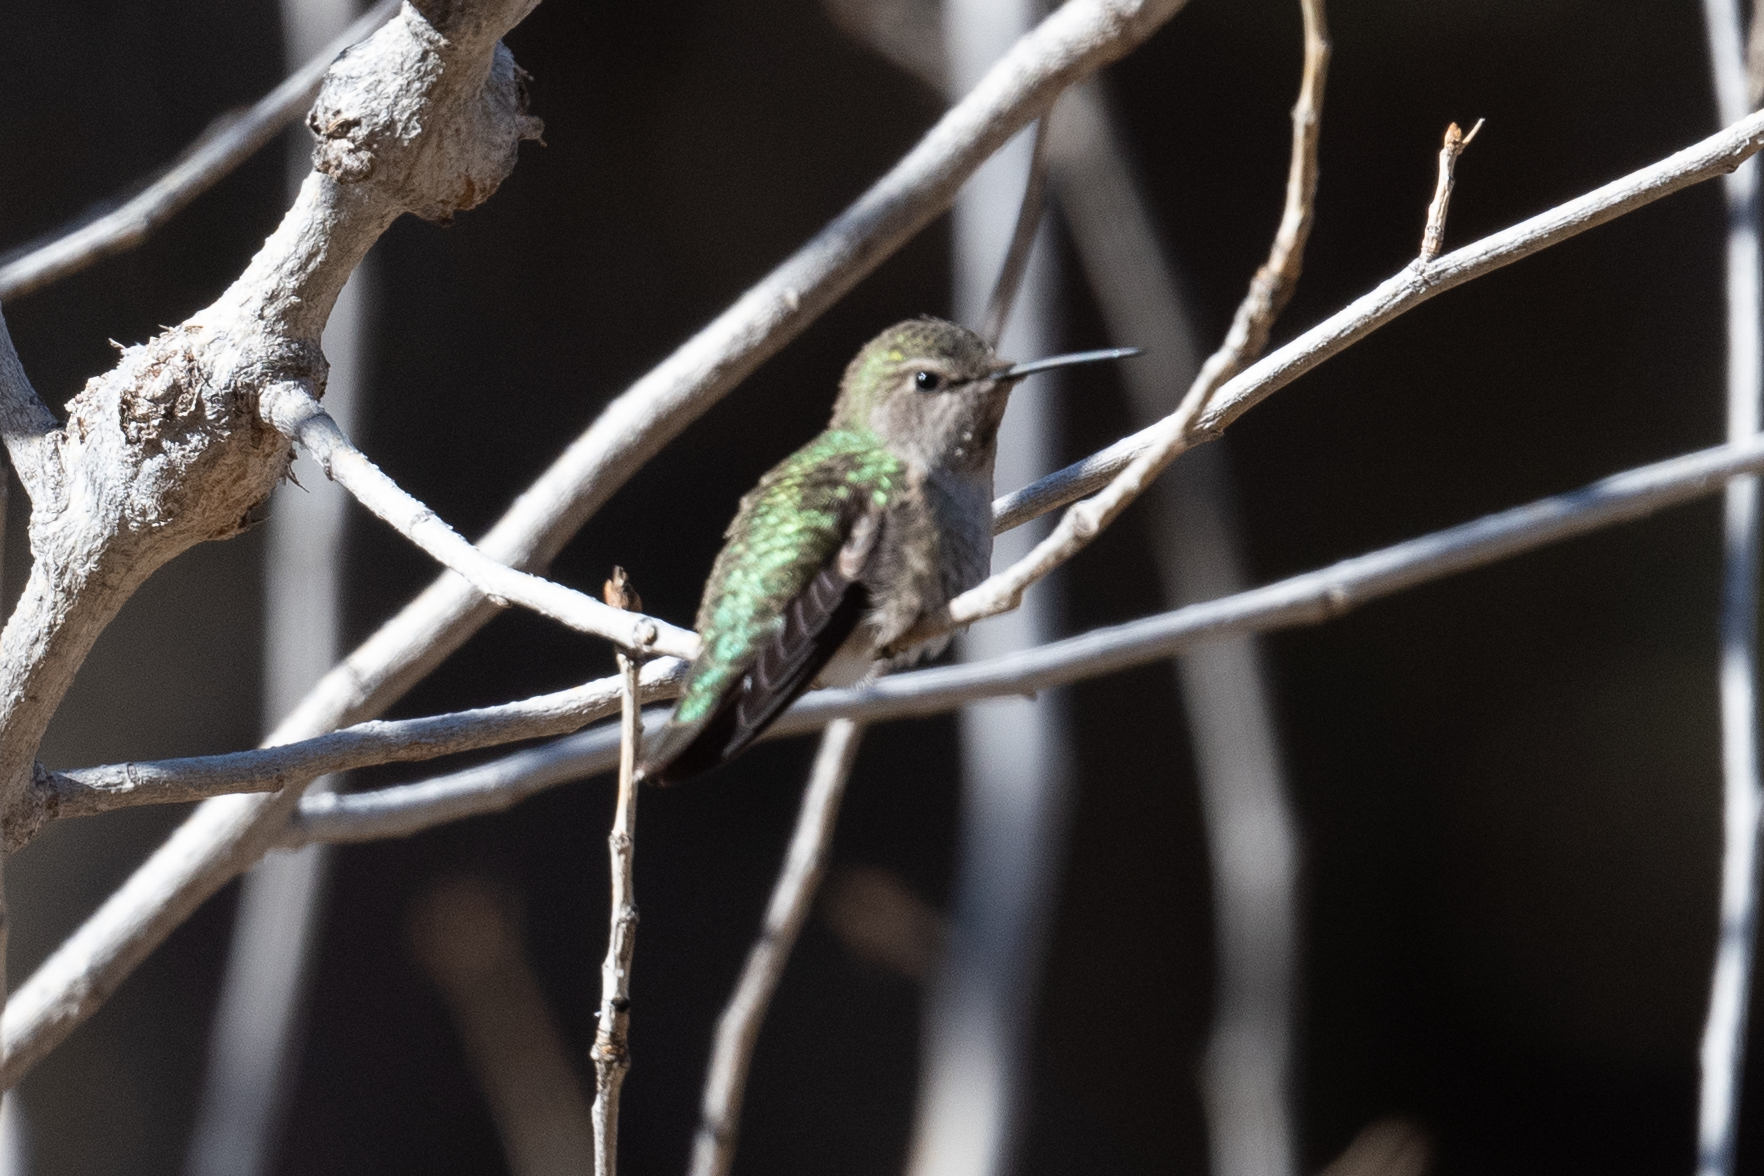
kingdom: Animalia
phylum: Chordata
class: Aves
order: Apodiformes
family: Trochilidae
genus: Calypte
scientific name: Calypte anna
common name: Anna's hummingbird
